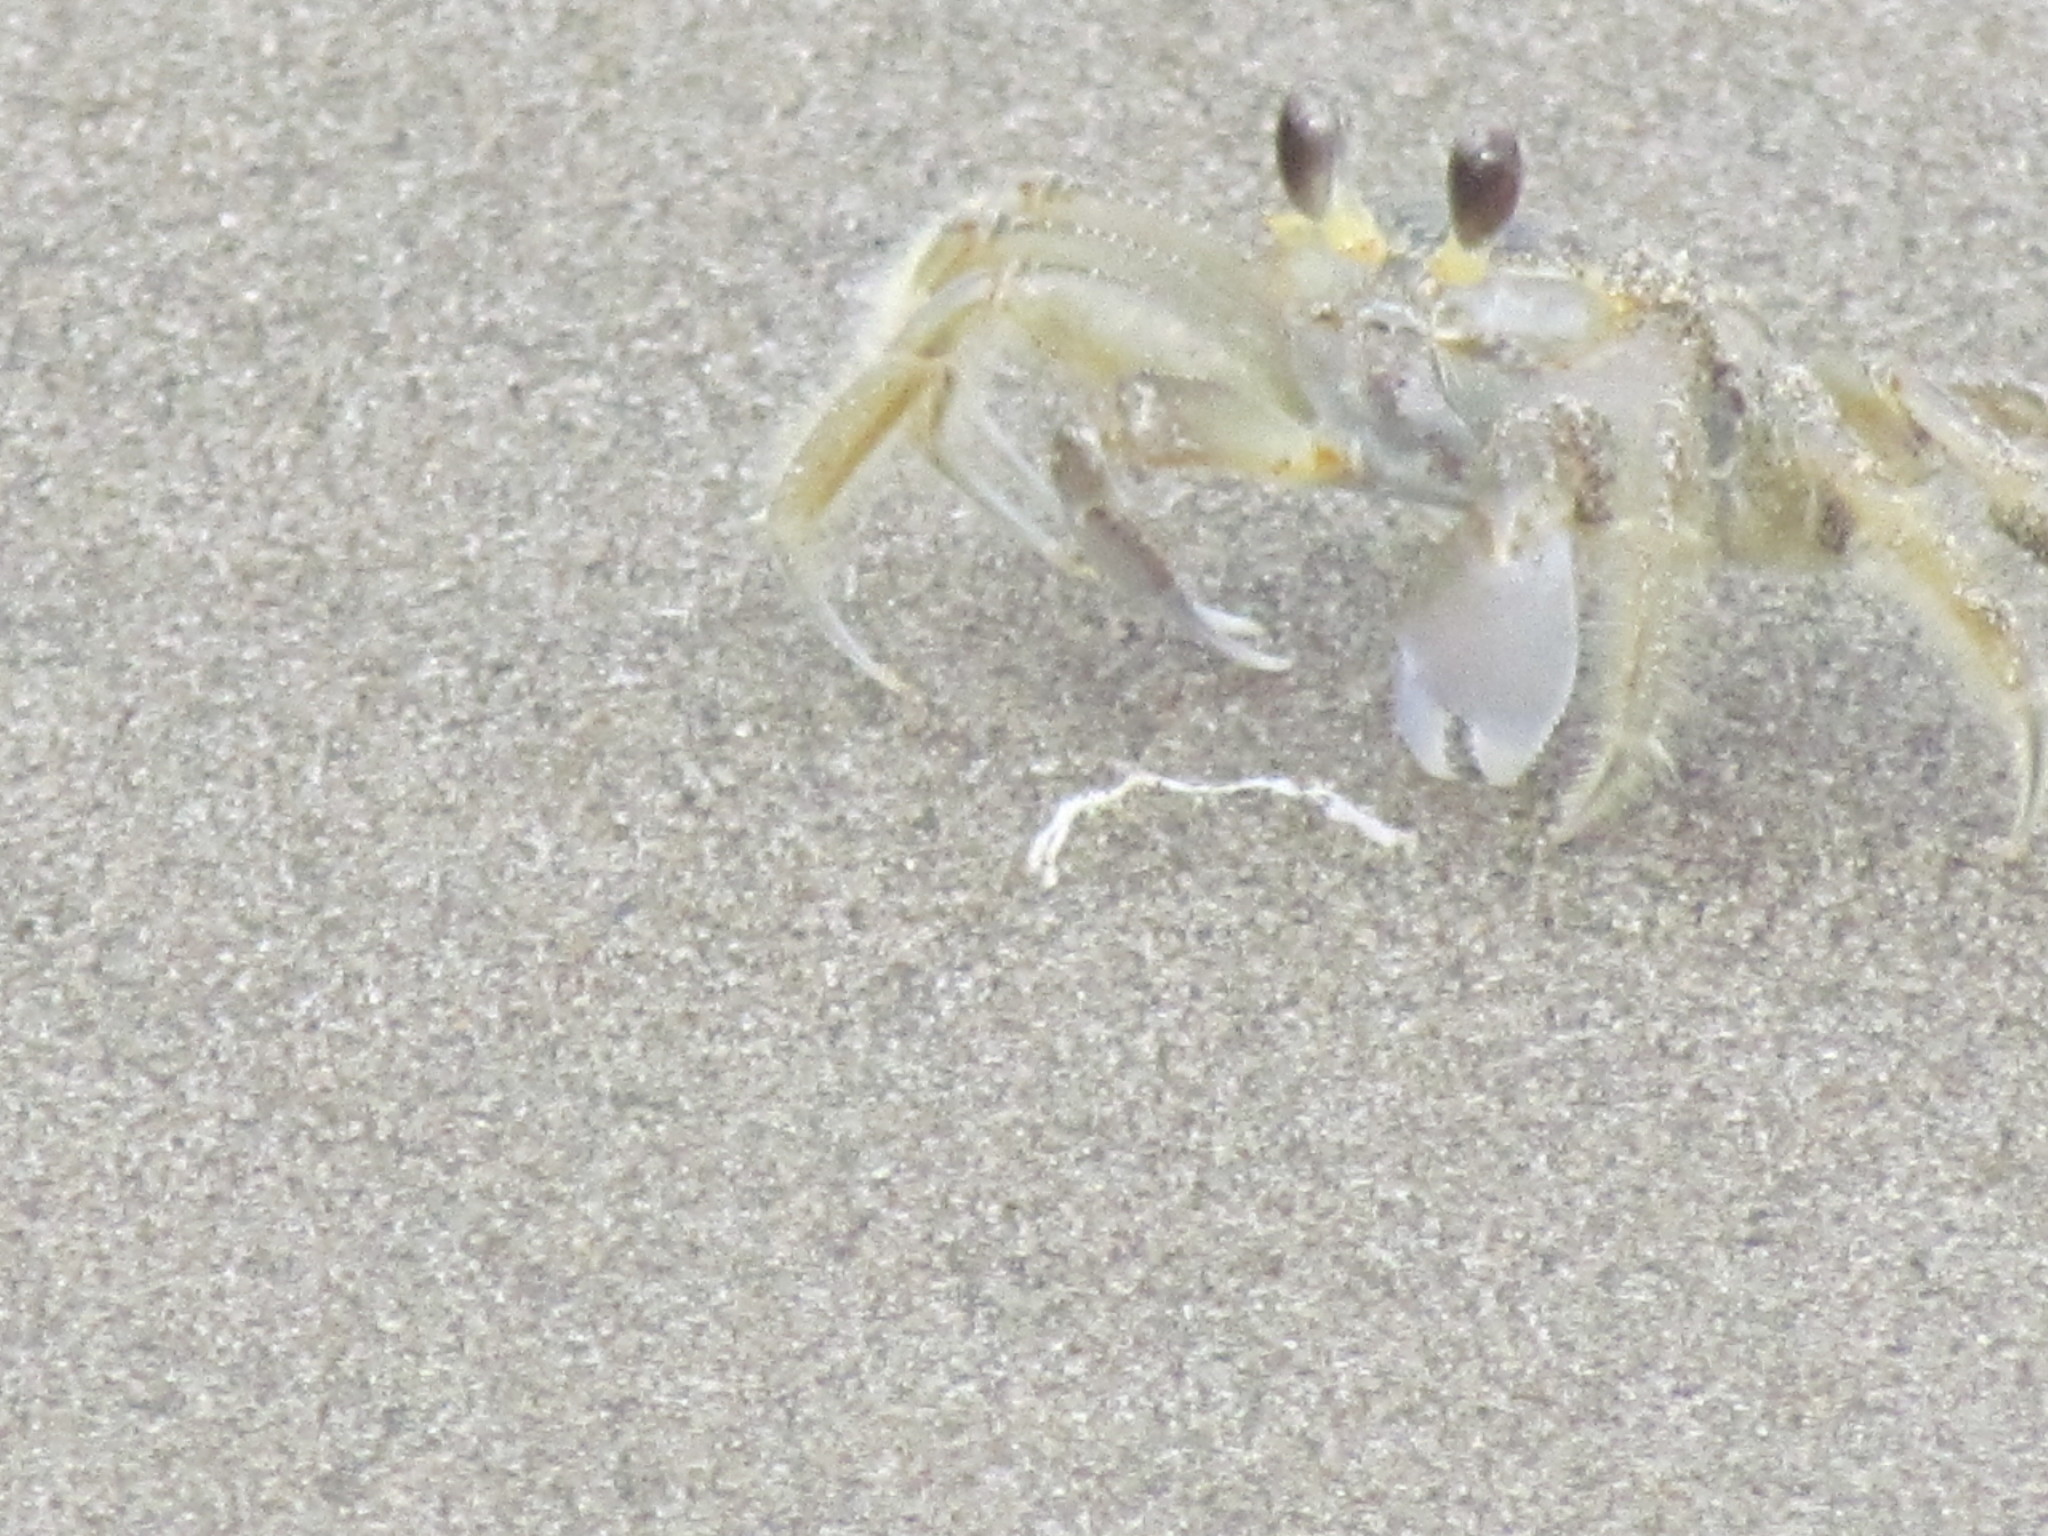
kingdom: Animalia
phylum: Arthropoda
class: Malacostraca
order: Decapoda
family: Ocypodidae
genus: Ocypode
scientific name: Ocypode quadrata
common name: Ghost crab
